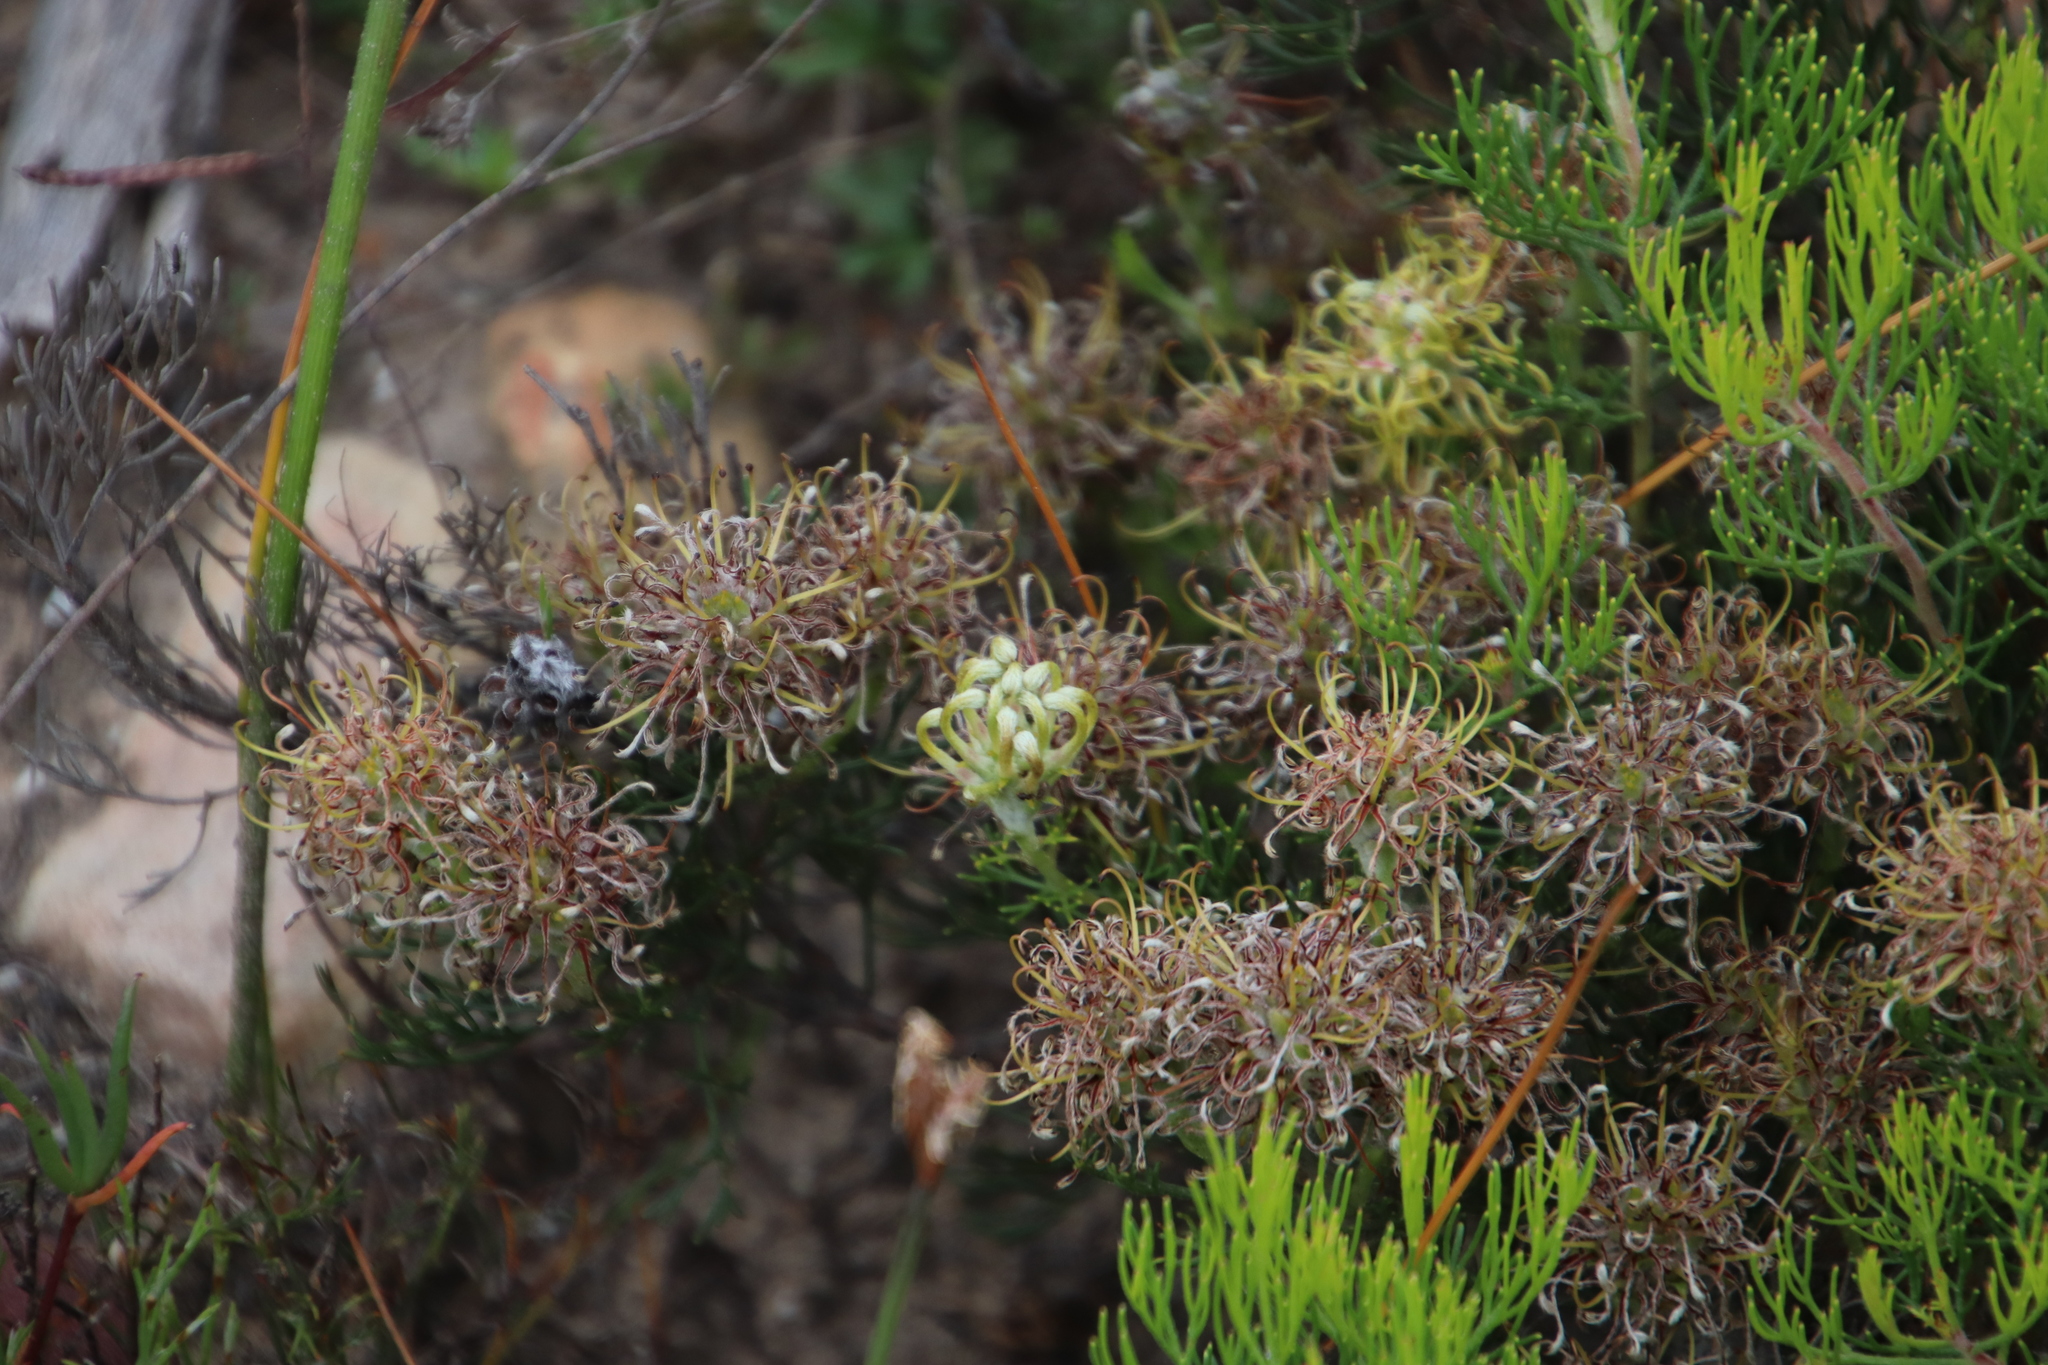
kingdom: Plantae
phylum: Tracheophyta
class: Magnoliopsida
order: Proteales
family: Proteaceae
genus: Serruria
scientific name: Serruria
